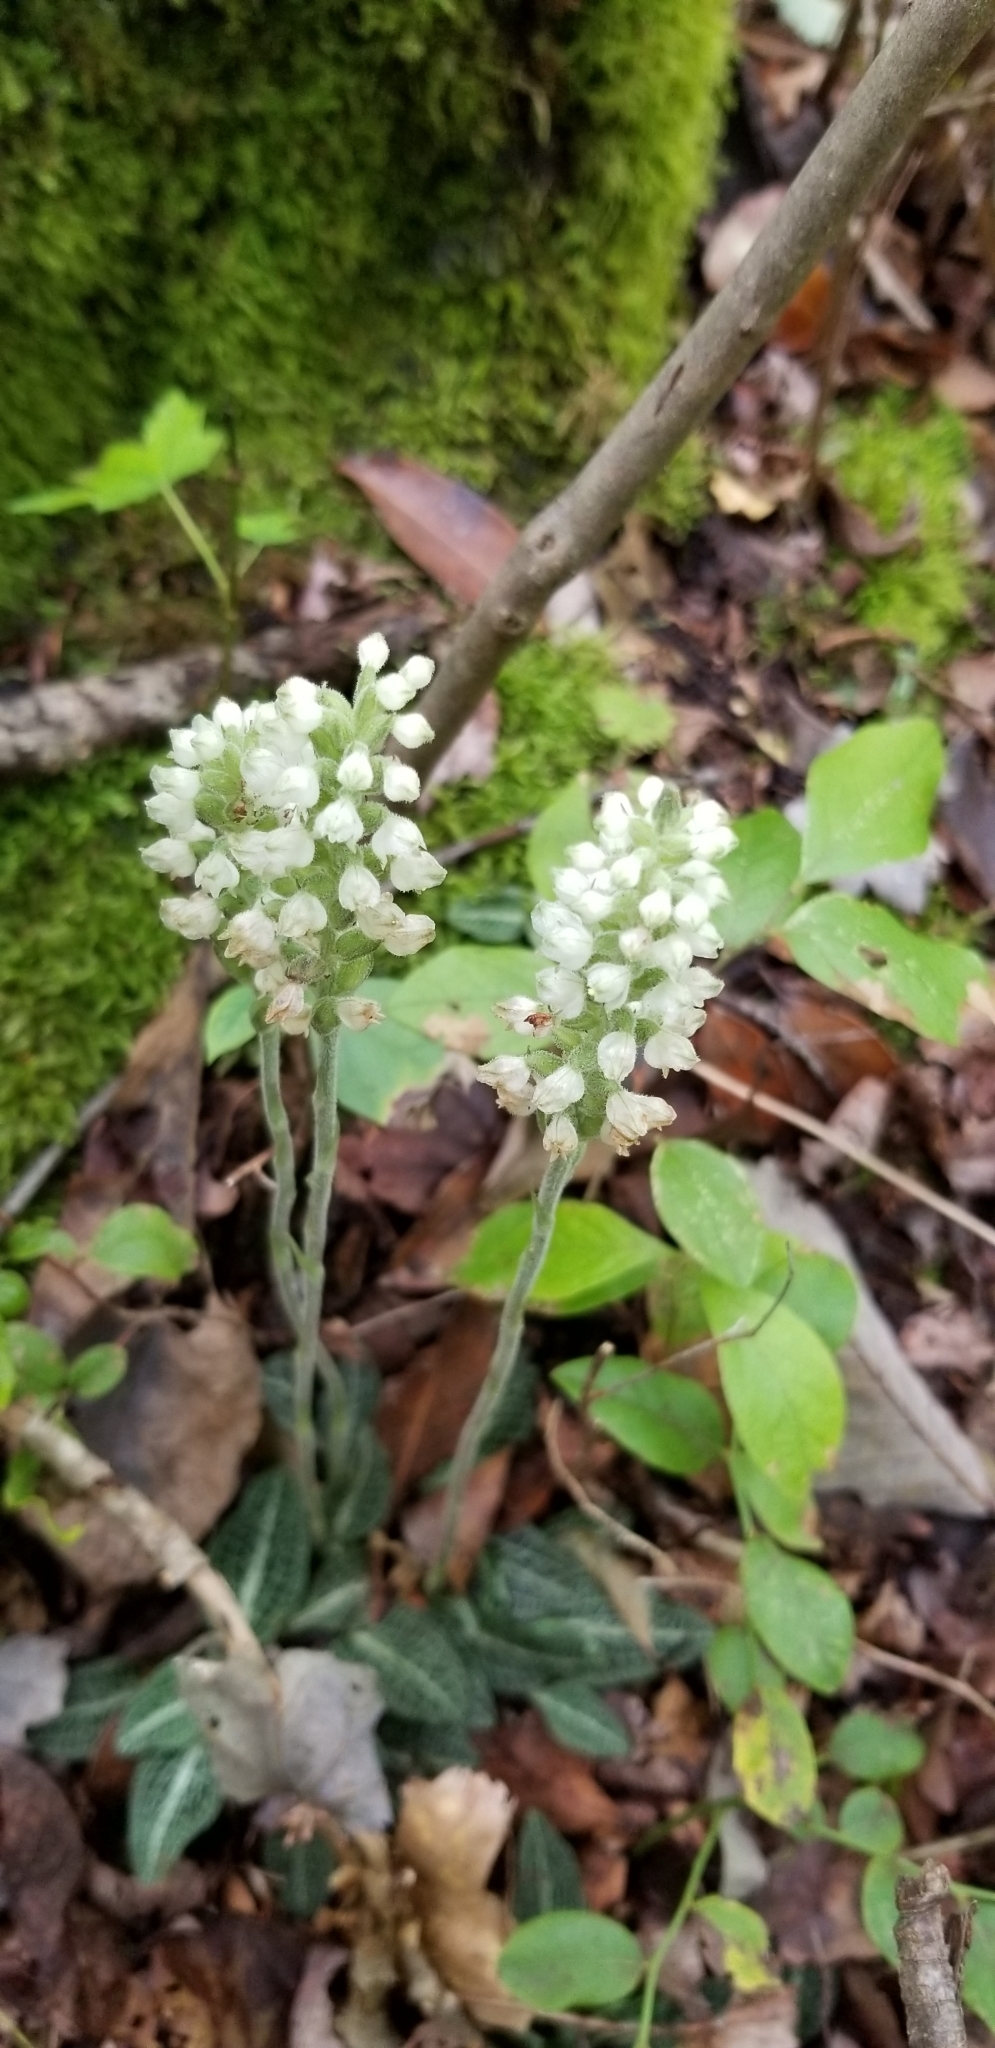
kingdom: Plantae
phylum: Tracheophyta
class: Liliopsida
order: Asparagales
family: Orchidaceae
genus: Goodyera
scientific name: Goodyera pubescens
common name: Downy rattlesnake-plantain
